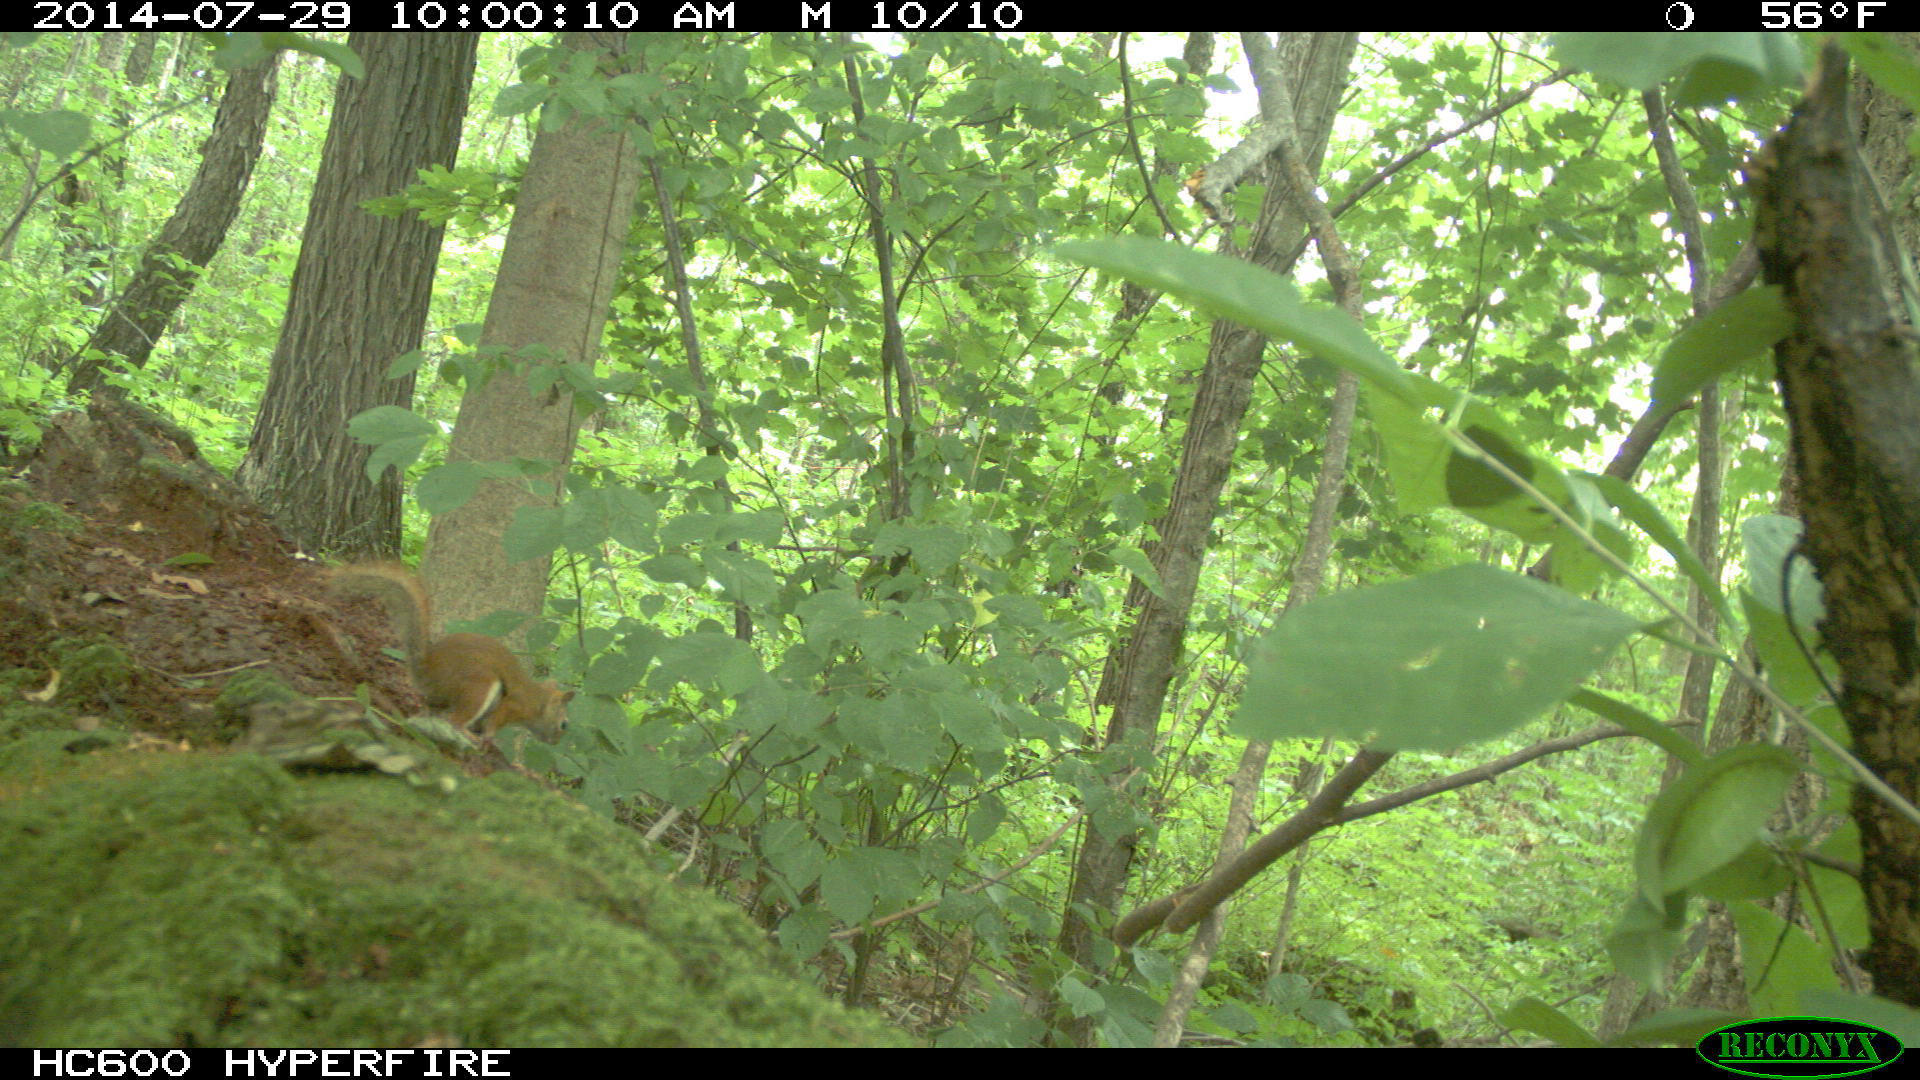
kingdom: Animalia
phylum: Chordata
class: Mammalia
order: Rodentia
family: Sciuridae
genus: Tamiasciurus
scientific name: Tamiasciurus hudsonicus
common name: Red squirrel
